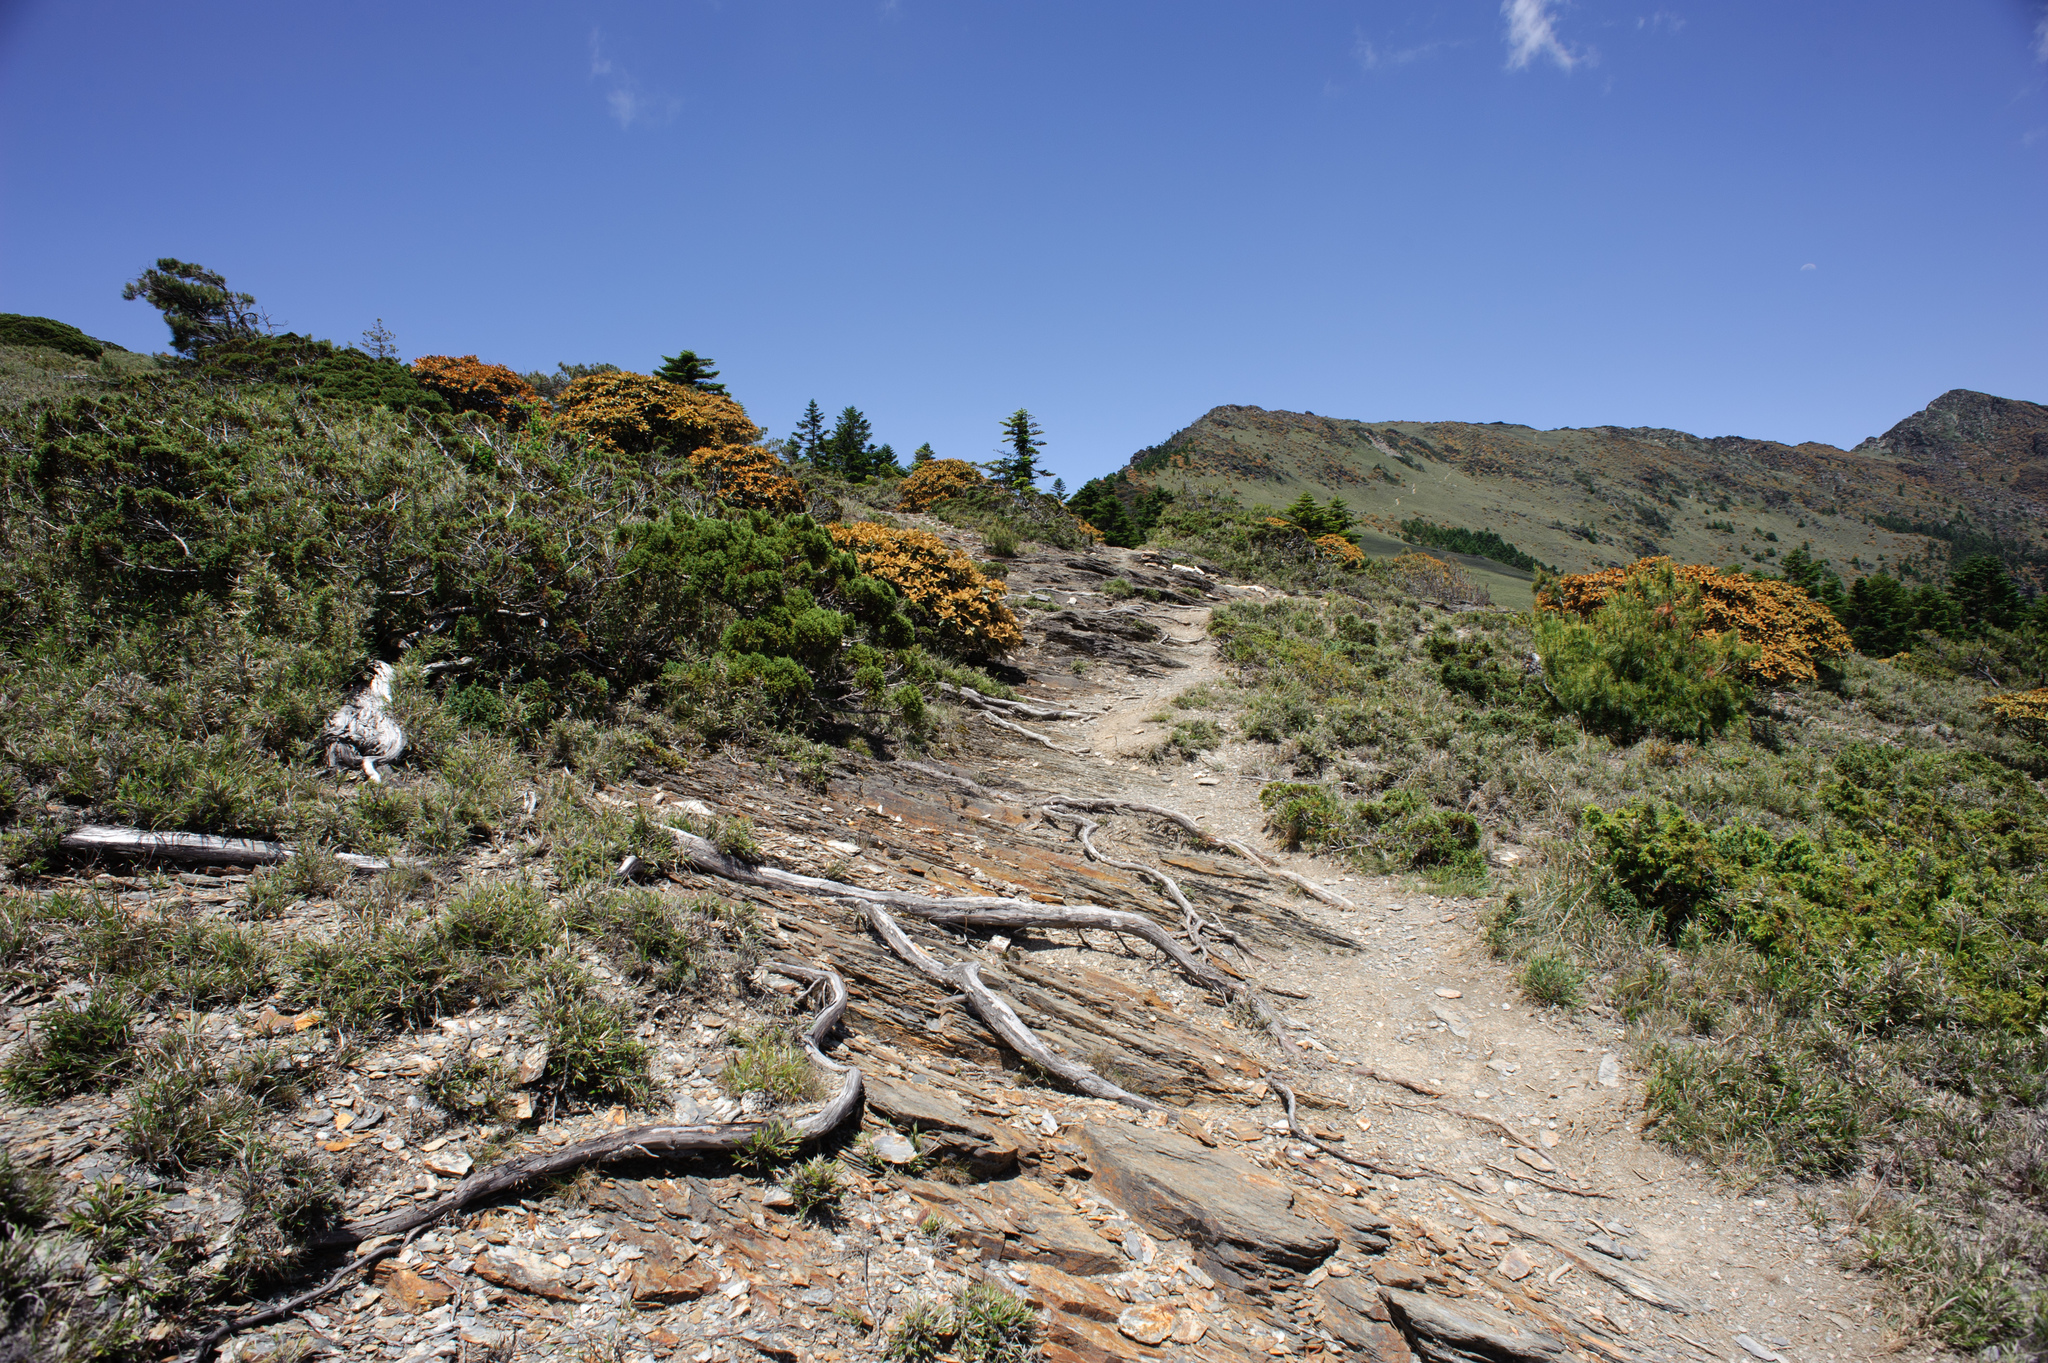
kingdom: Plantae
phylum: Tracheophyta
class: Magnoliopsida
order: Ericales
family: Ericaceae
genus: Rhododendron
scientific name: Rhododendron hyperythrum
